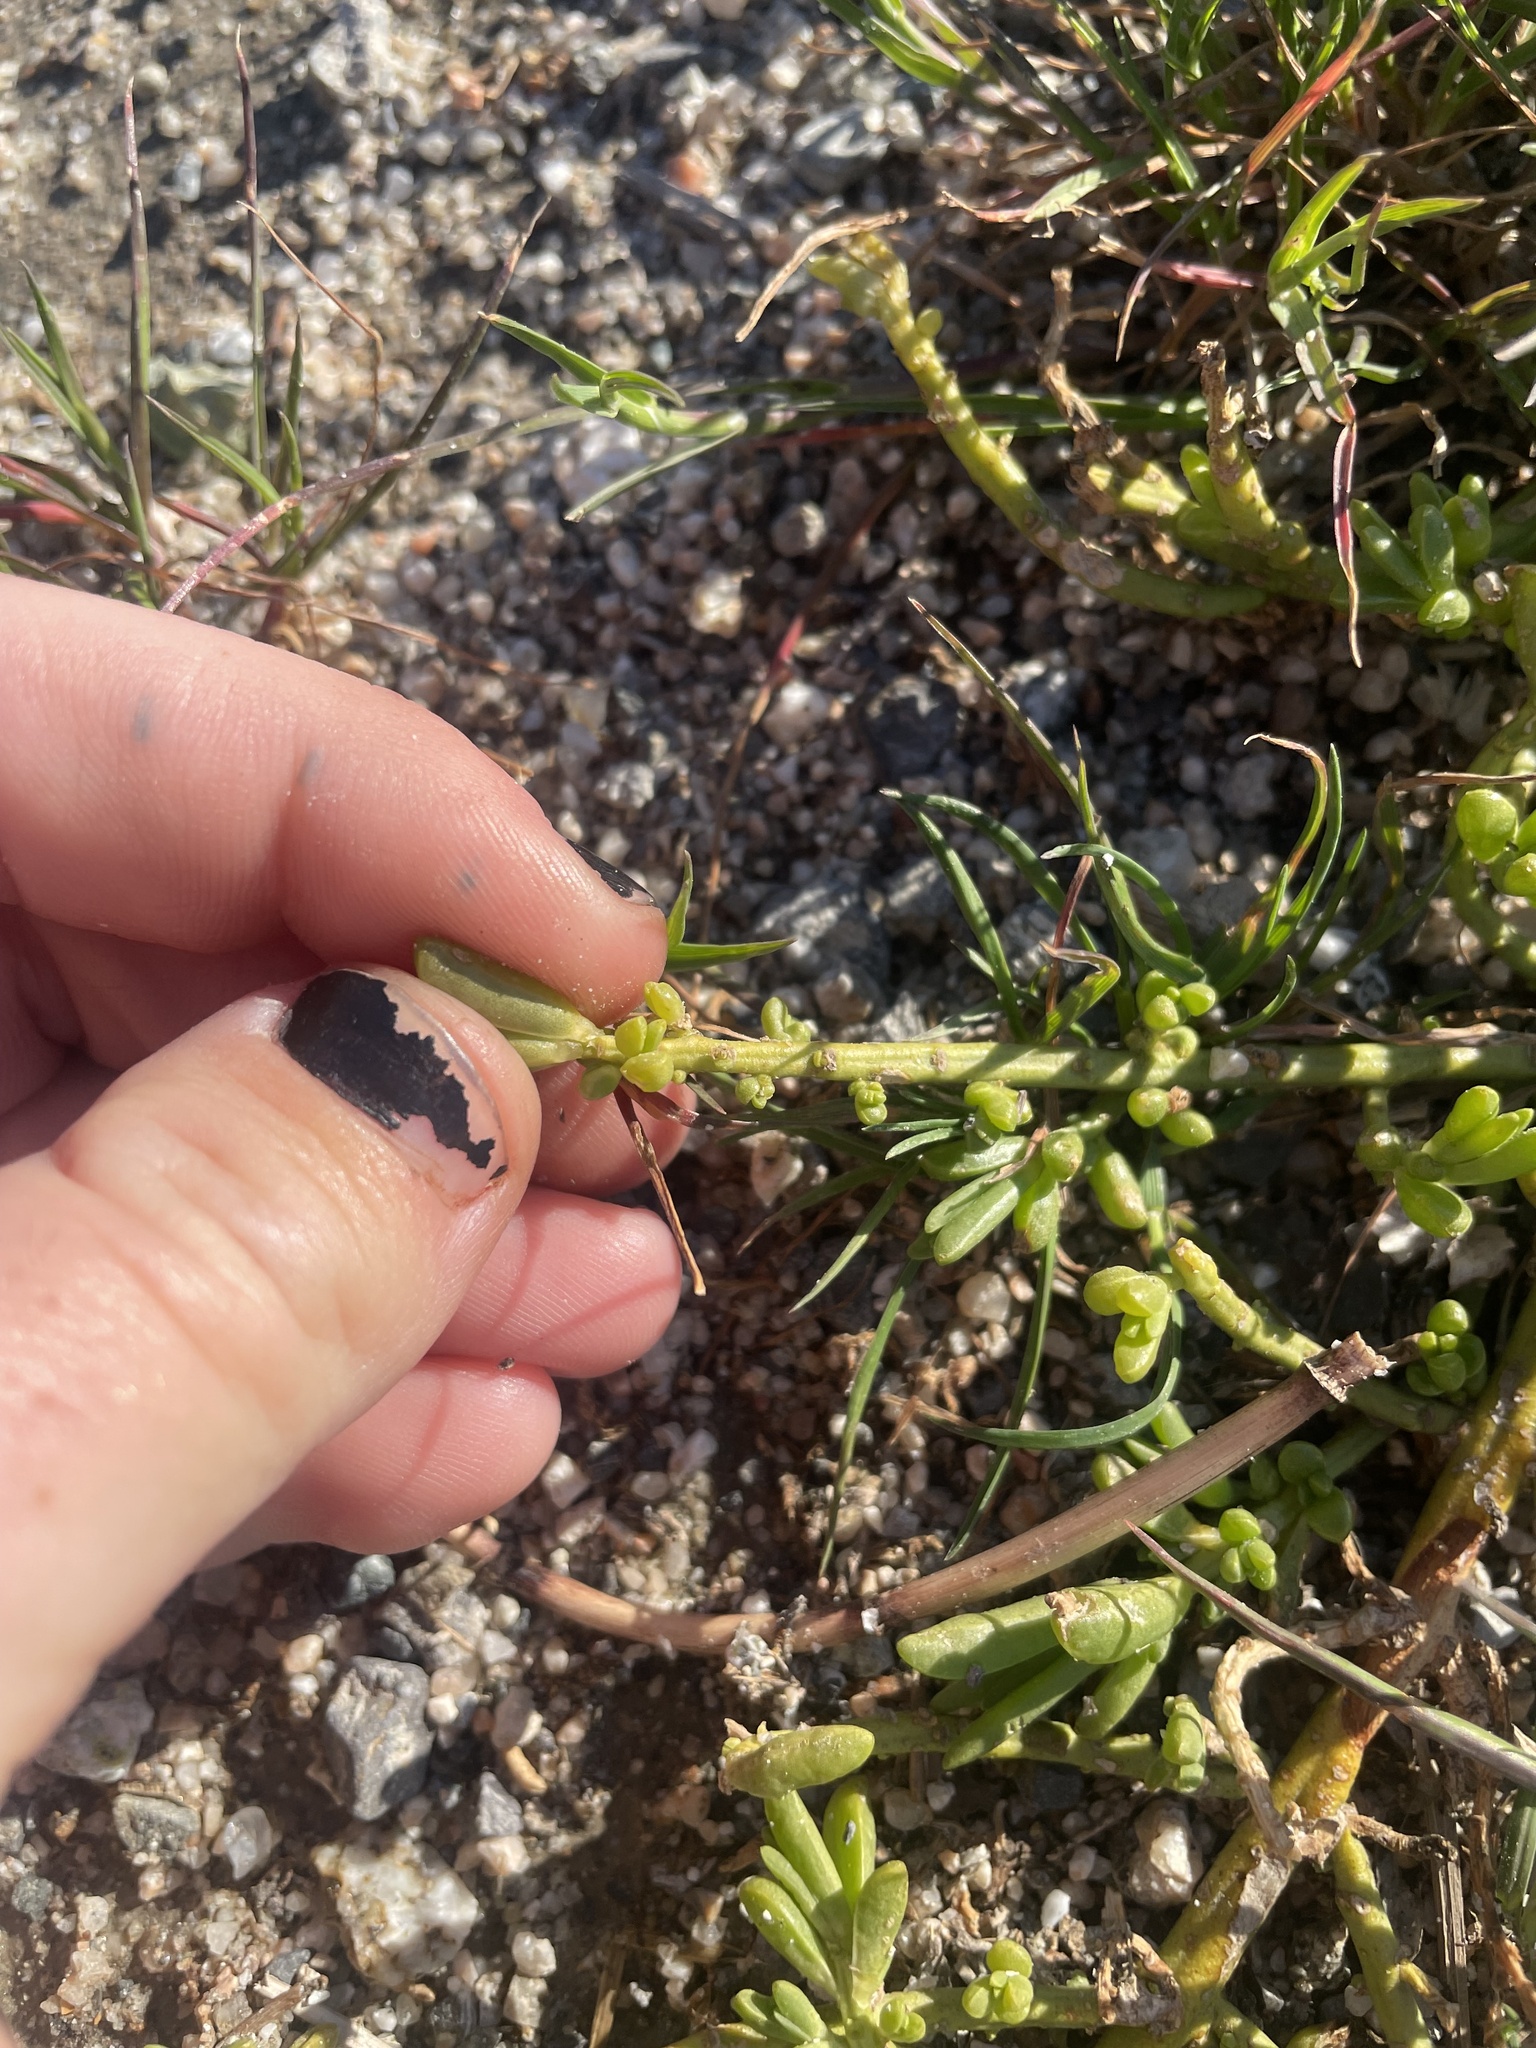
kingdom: Plantae
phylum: Tracheophyta
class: Magnoliopsida
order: Brassicales
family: Bataceae
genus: Batis
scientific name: Batis maritima
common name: Turtleweed
